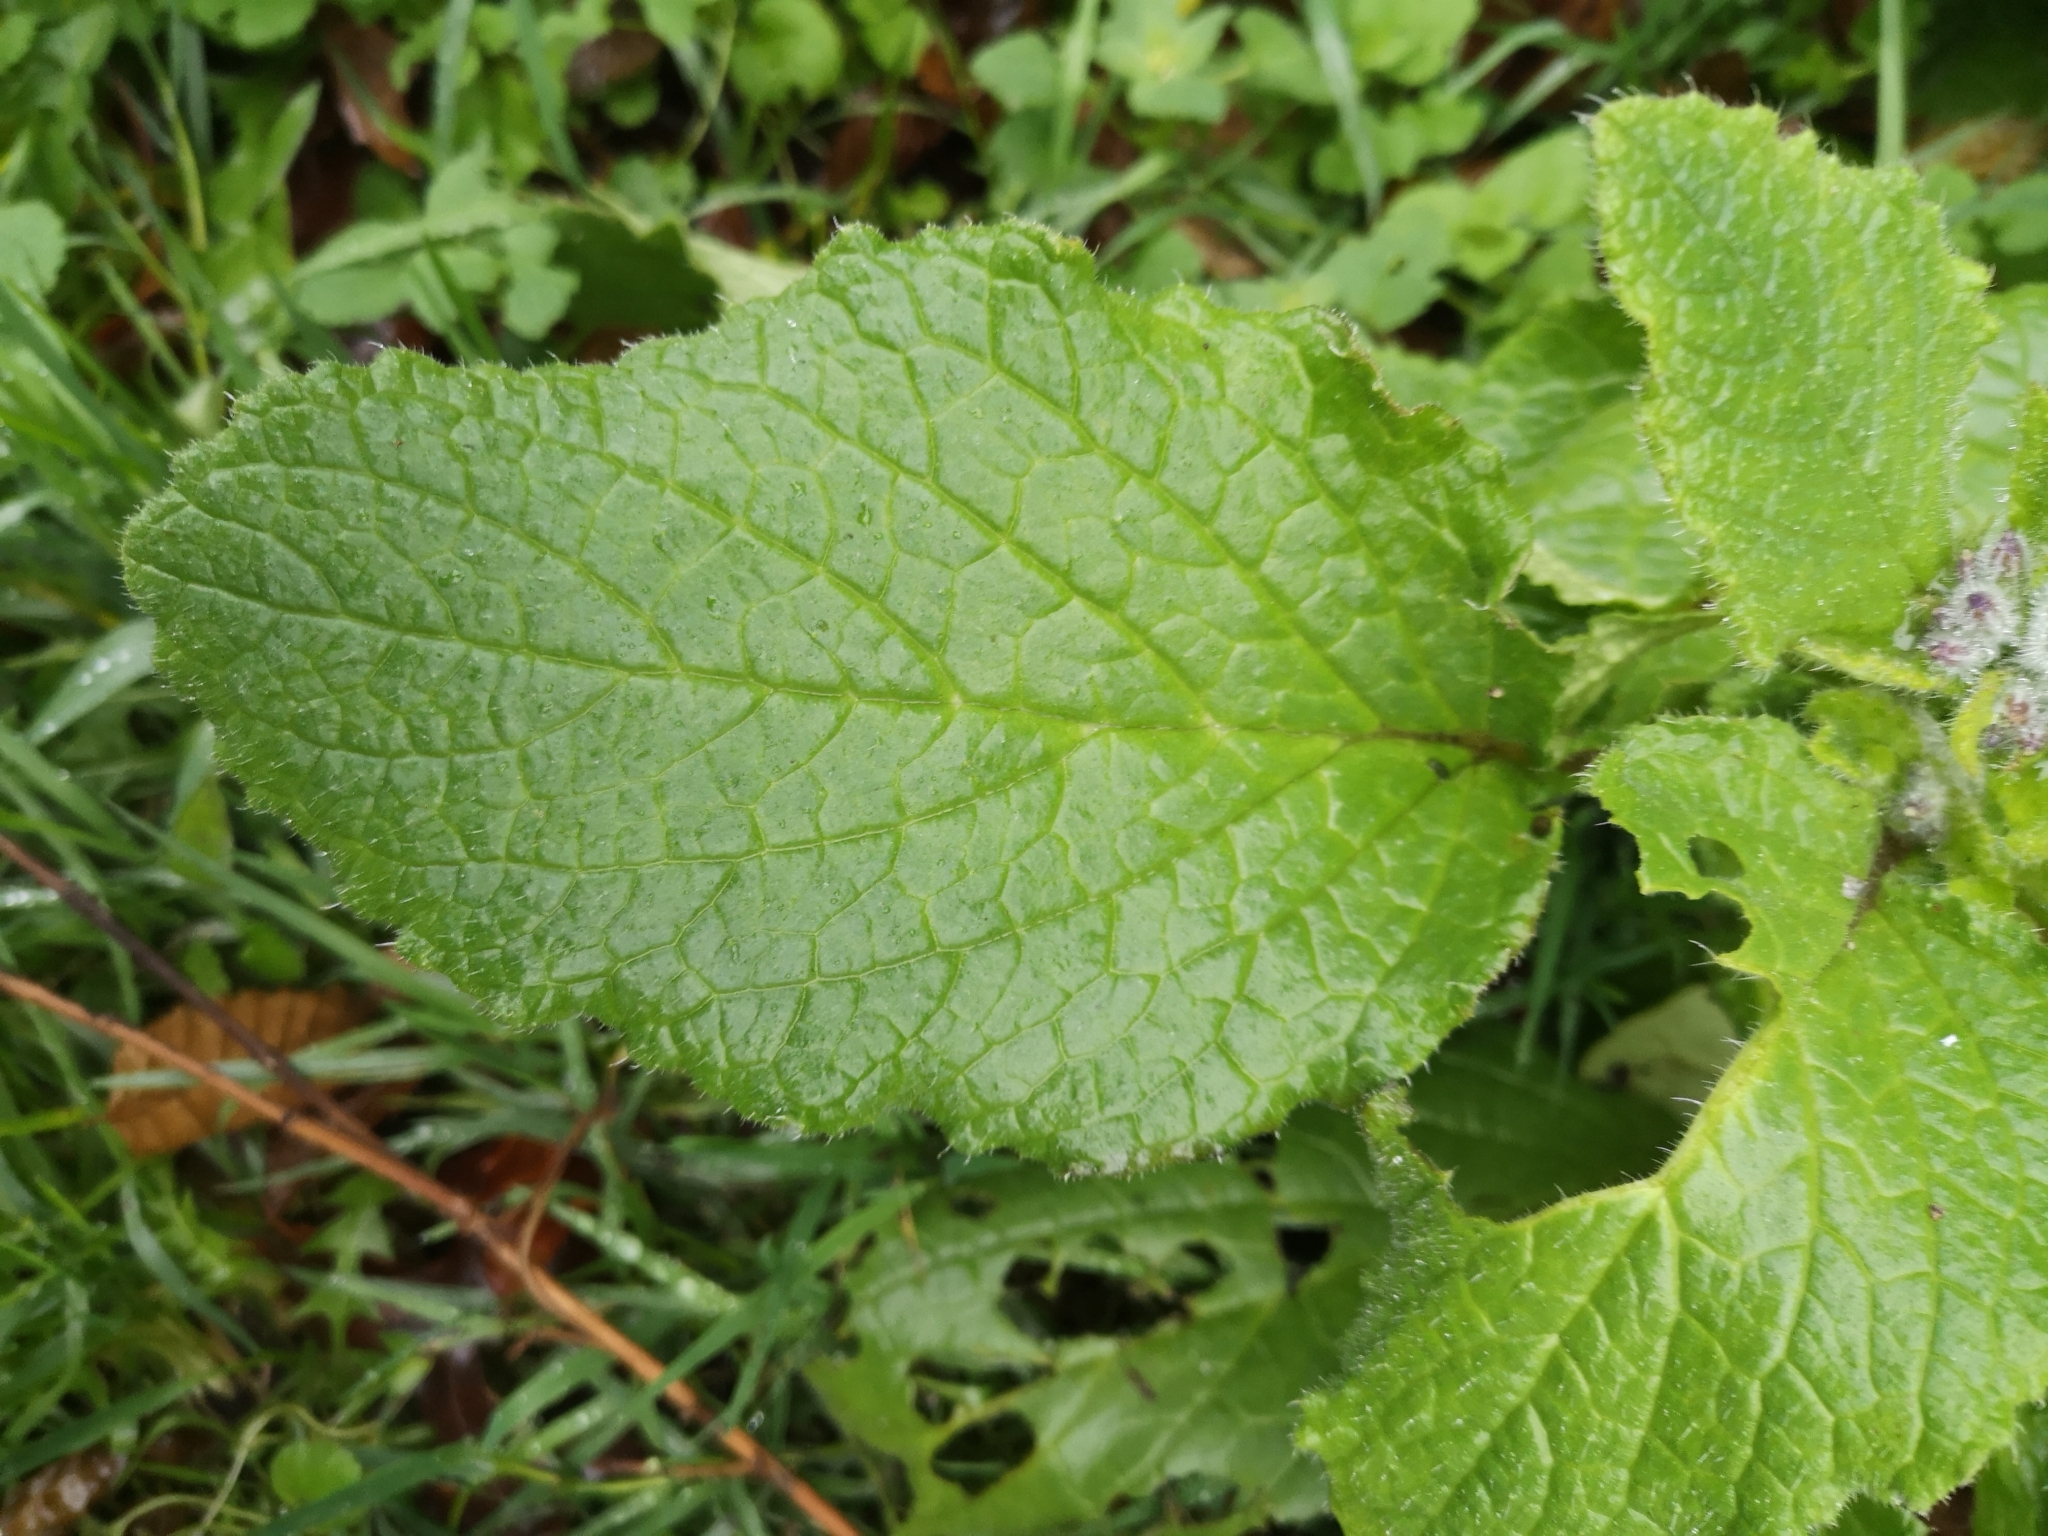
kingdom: Plantae
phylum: Tracheophyta
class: Magnoliopsida
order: Boraginales
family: Boraginaceae
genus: Borago
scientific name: Borago officinalis
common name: Borage
